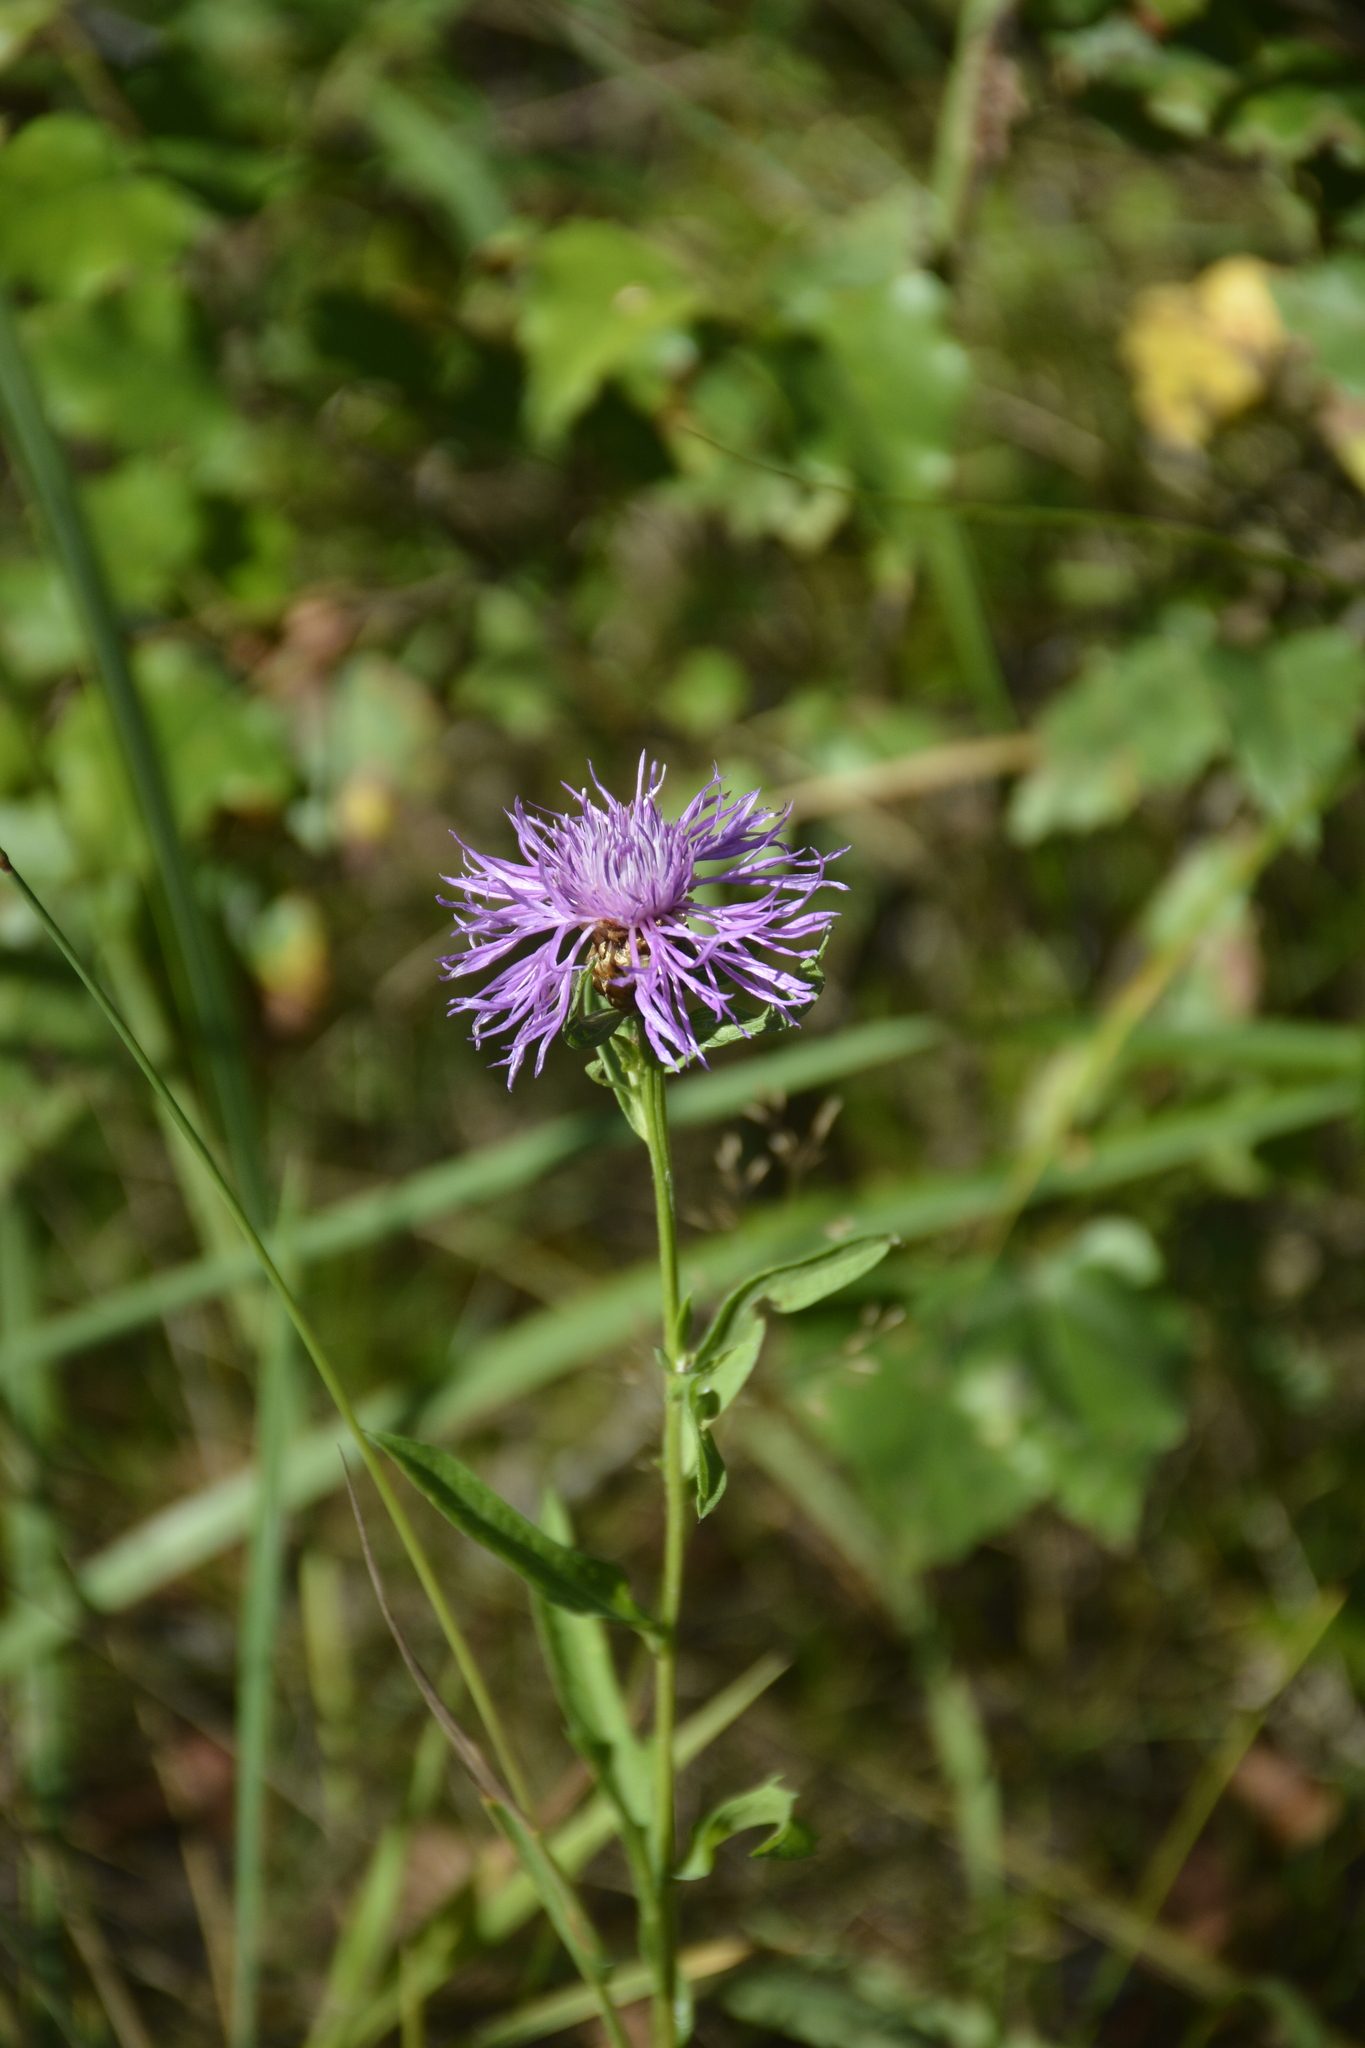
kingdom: Plantae
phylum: Tracheophyta
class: Magnoliopsida
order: Asterales
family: Asteraceae
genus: Centaurea
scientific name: Centaurea jacea
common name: Brown knapweed
